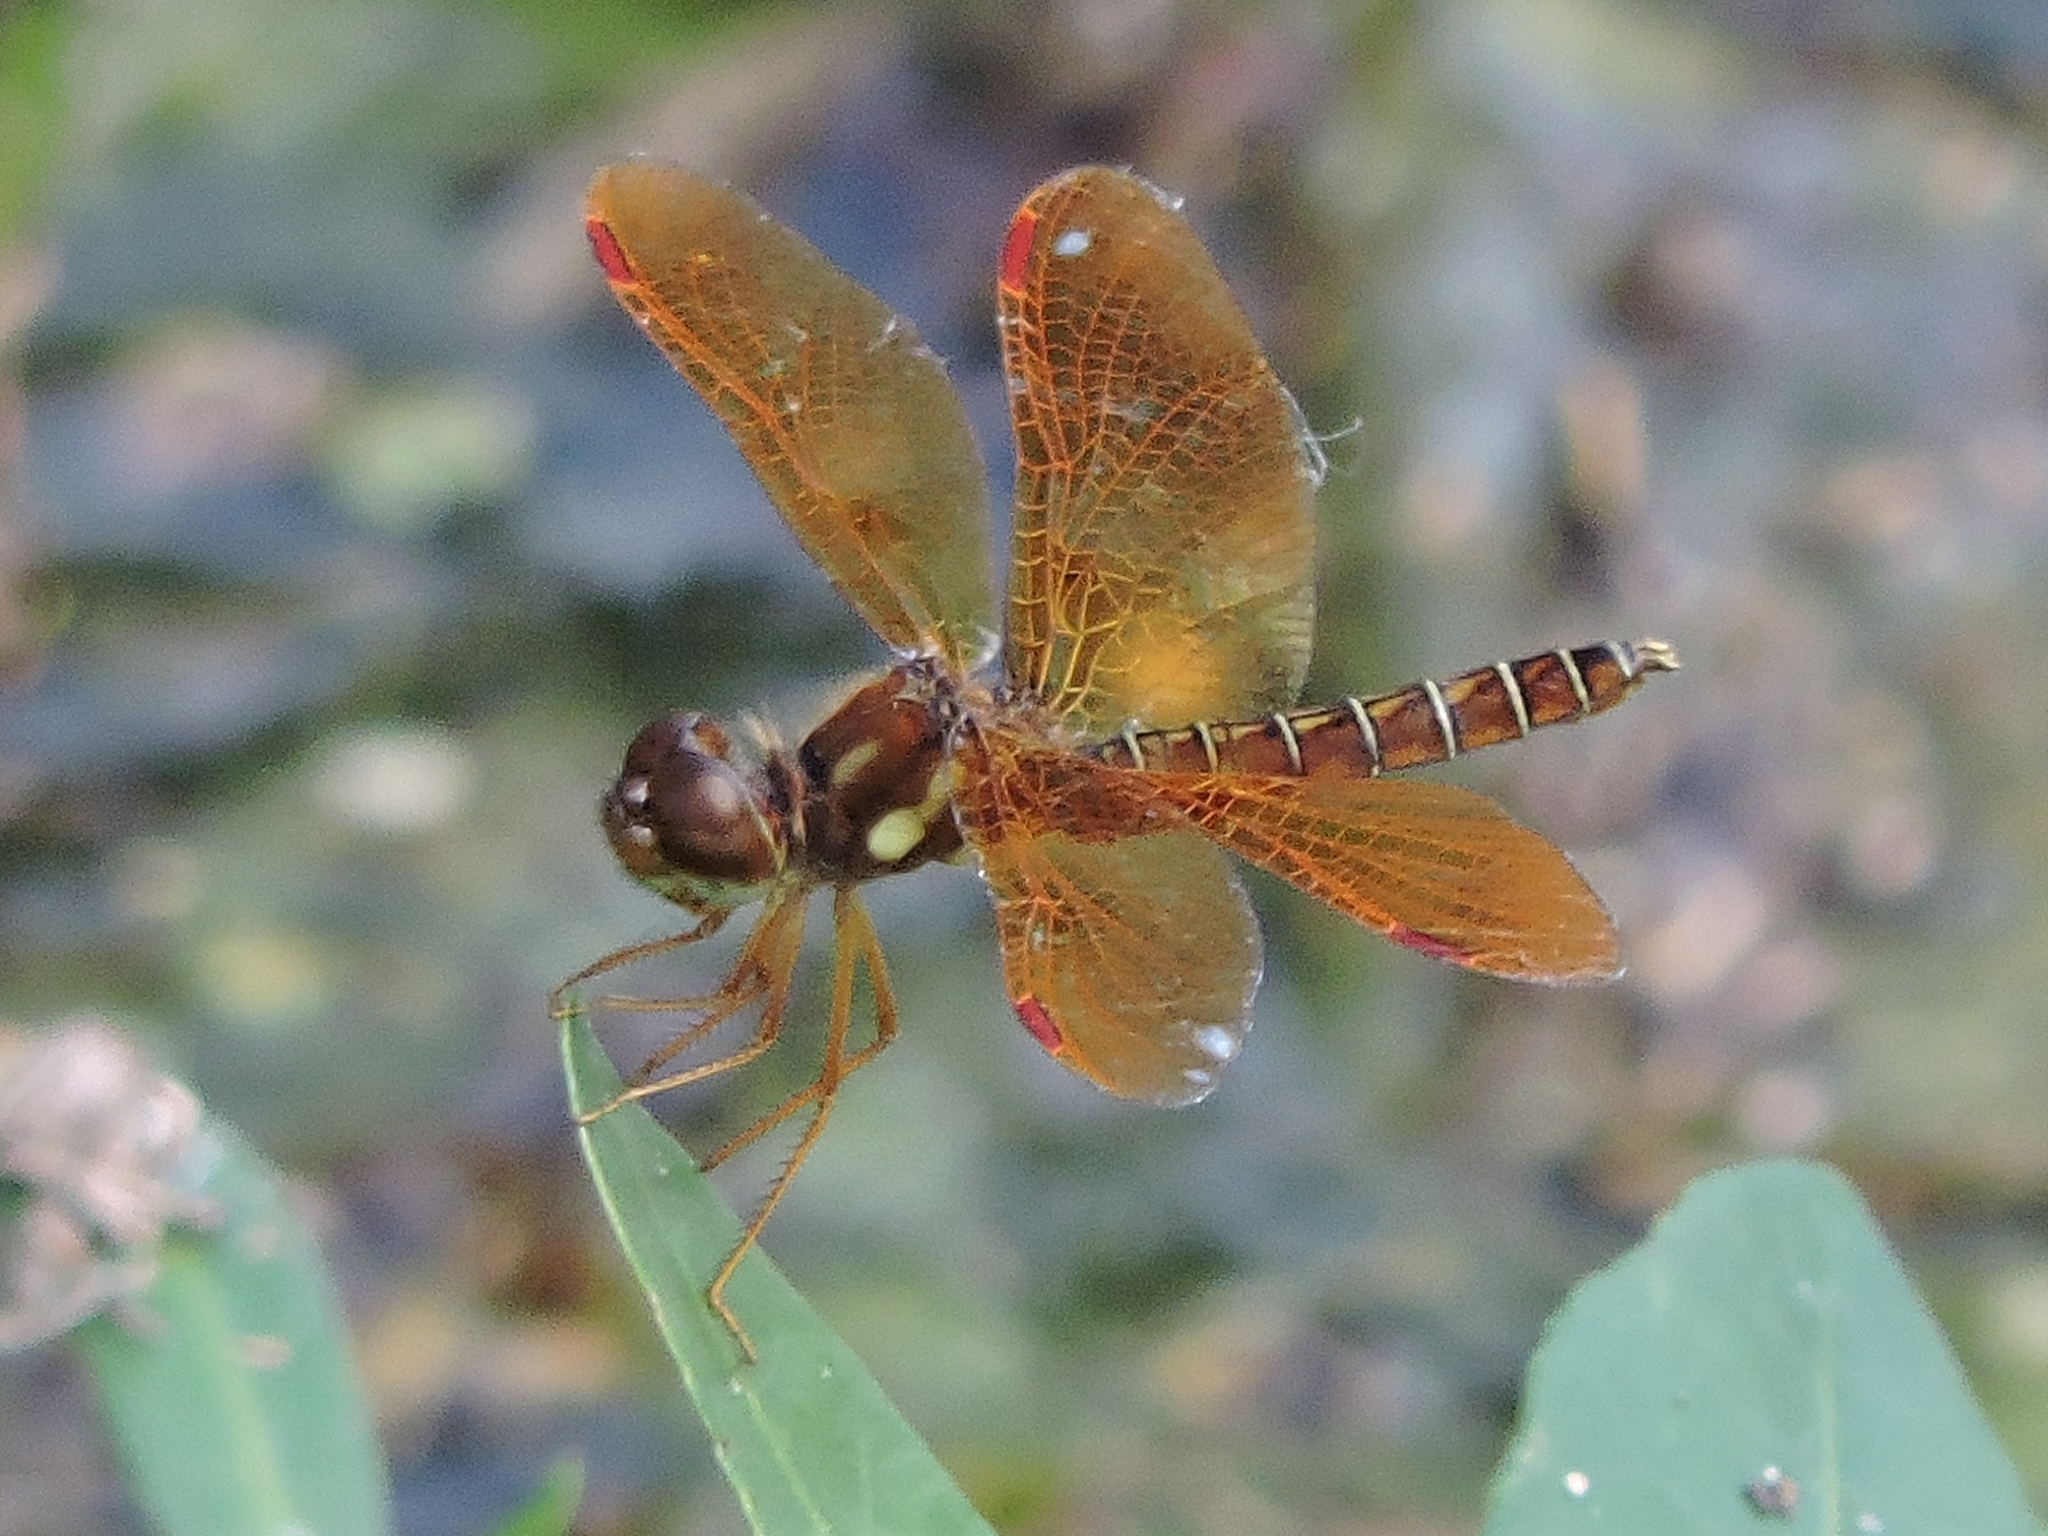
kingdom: Animalia
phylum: Arthropoda
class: Insecta
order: Odonata
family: Libellulidae
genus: Perithemis
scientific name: Perithemis tenera
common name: Eastern amberwing
